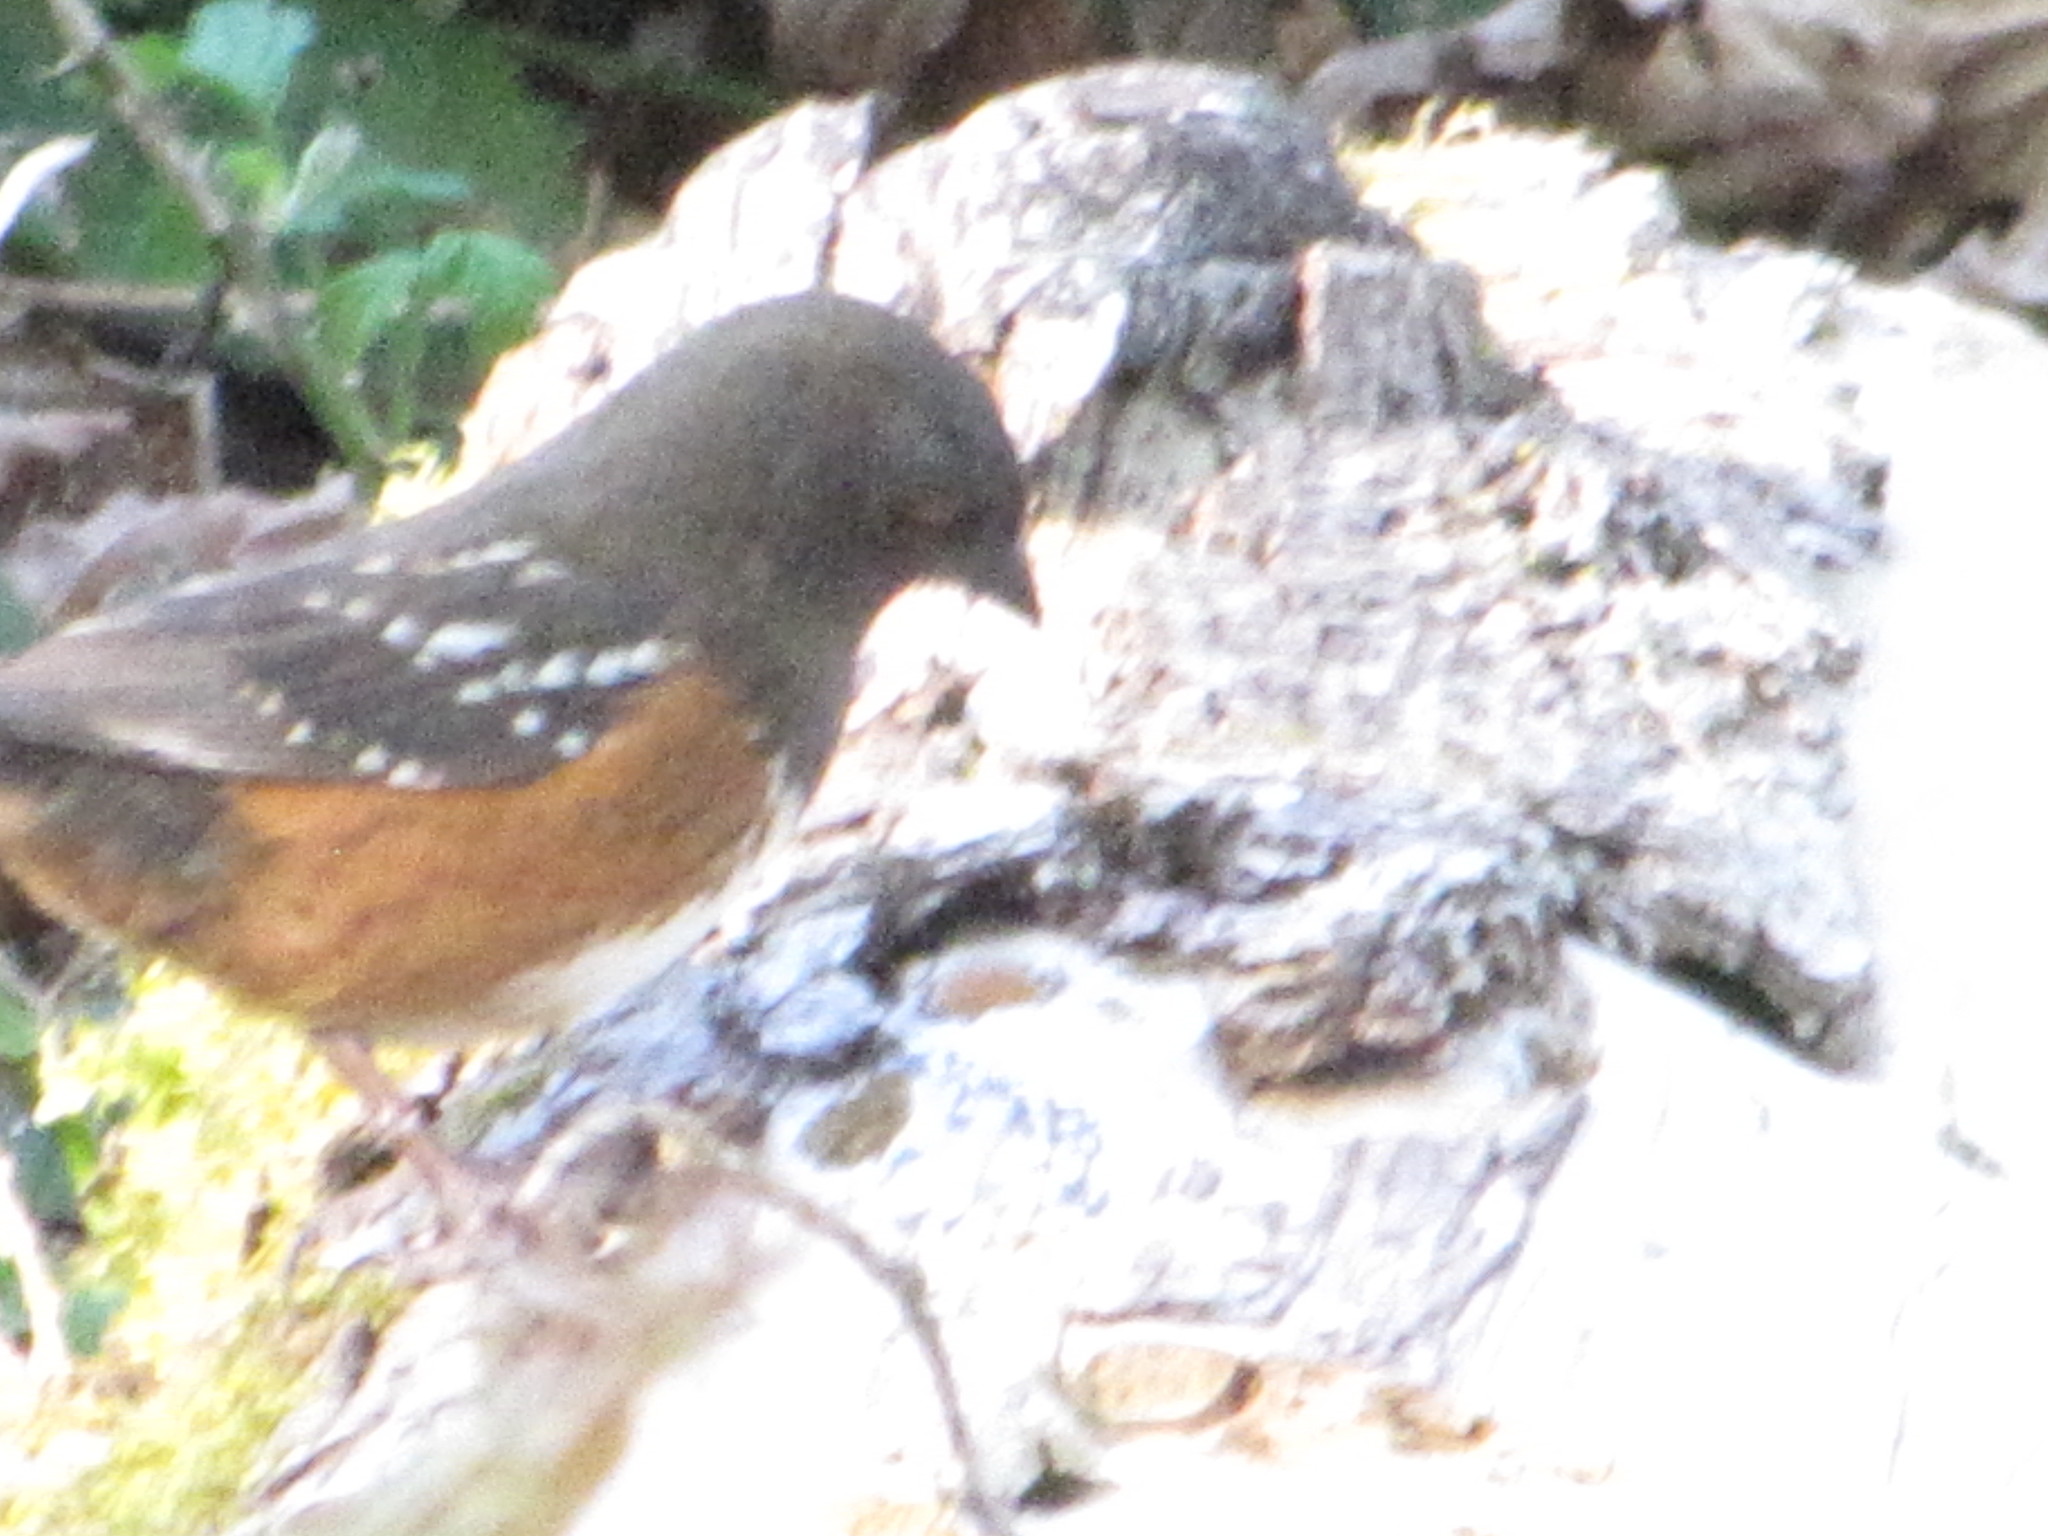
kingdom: Animalia
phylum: Chordata
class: Aves
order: Passeriformes
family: Passerellidae
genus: Pipilo
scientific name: Pipilo maculatus
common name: Spotted towhee
